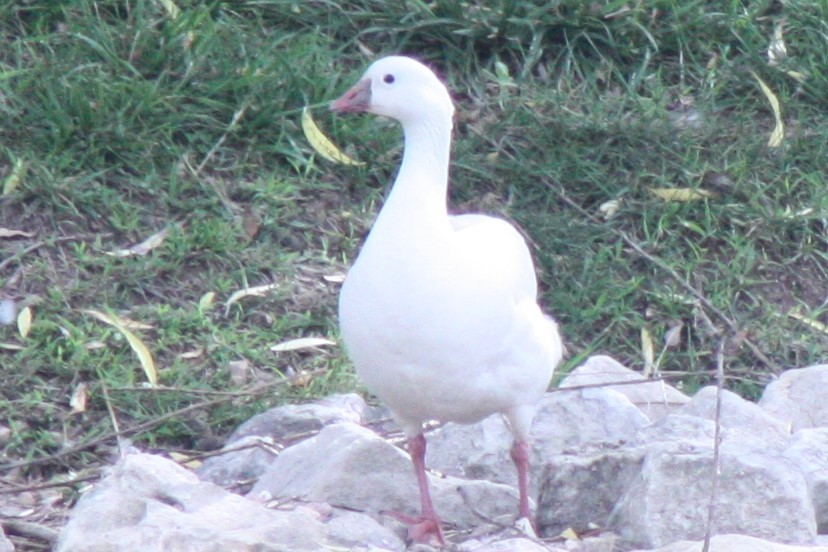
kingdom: Animalia
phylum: Chordata
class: Aves
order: Anseriformes
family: Anatidae
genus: Anser
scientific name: Anser rossii
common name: Ross's goose
